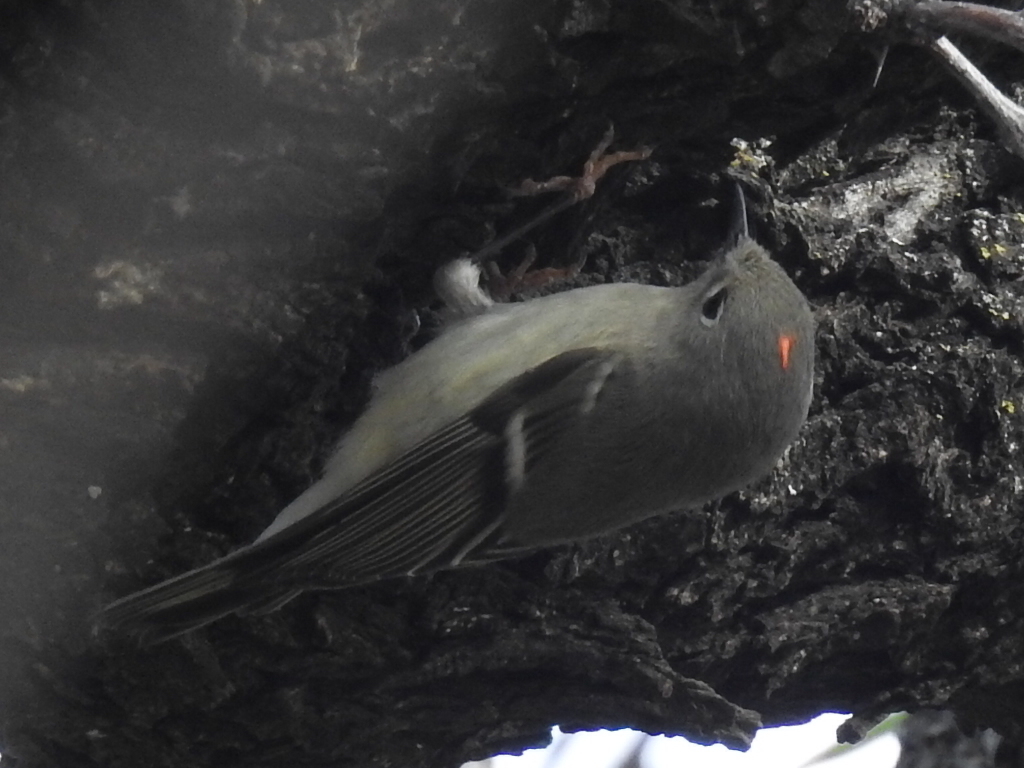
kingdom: Animalia
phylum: Chordata
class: Aves
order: Passeriformes
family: Regulidae
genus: Regulus
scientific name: Regulus calendula
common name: Ruby-crowned kinglet
